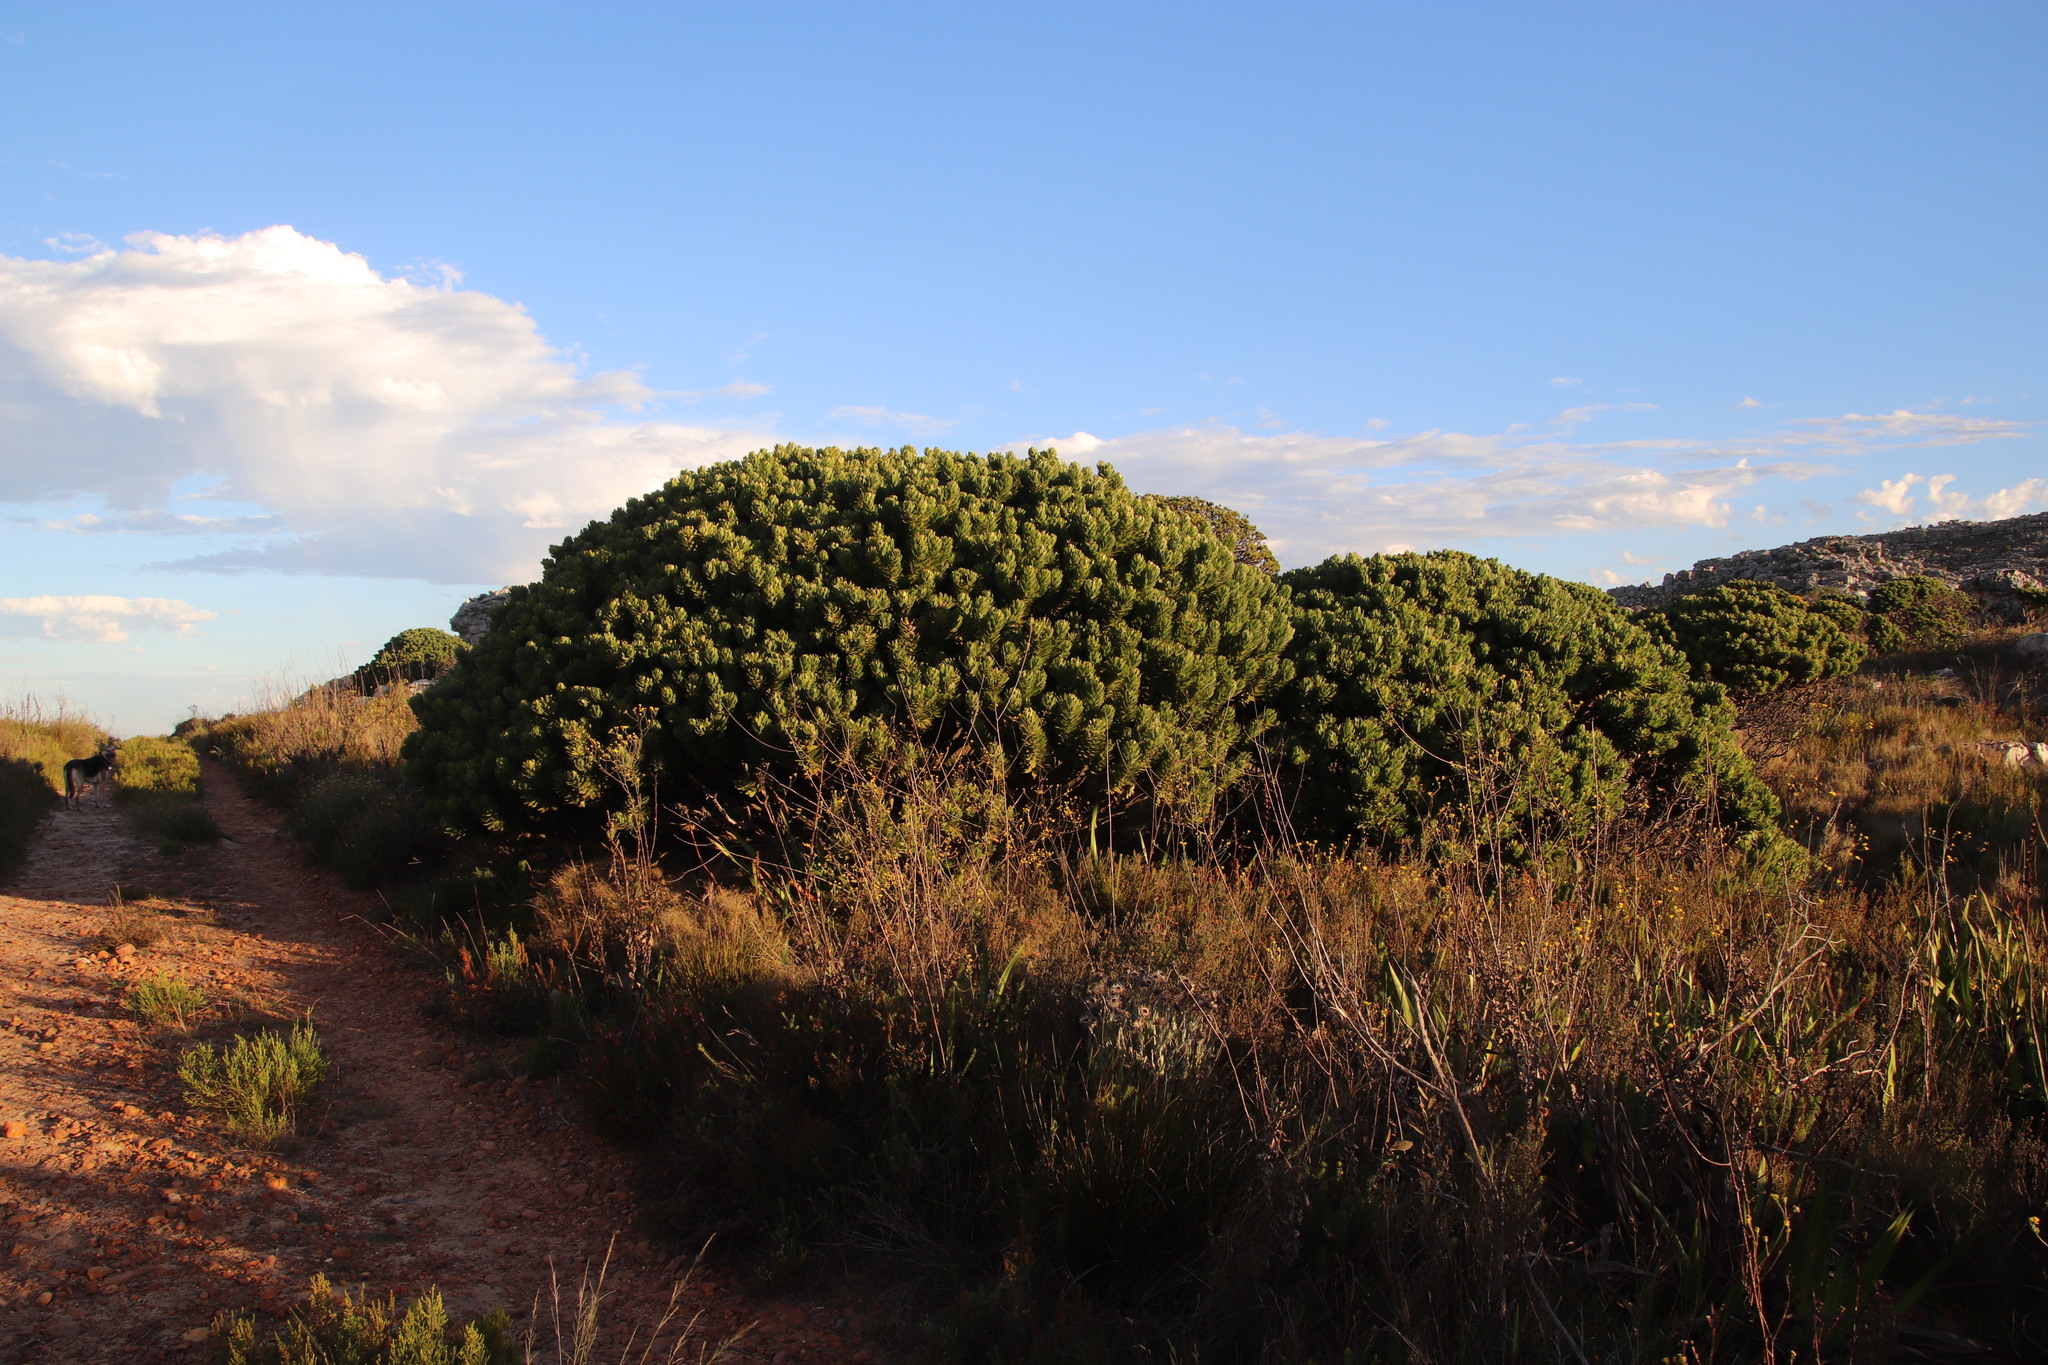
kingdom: Plantae
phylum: Tracheophyta
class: Magnoliopsida
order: Proteales
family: Proteaceae
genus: Mimetes
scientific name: Mimetes fimbriifolius
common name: Fringed bottlebrush
